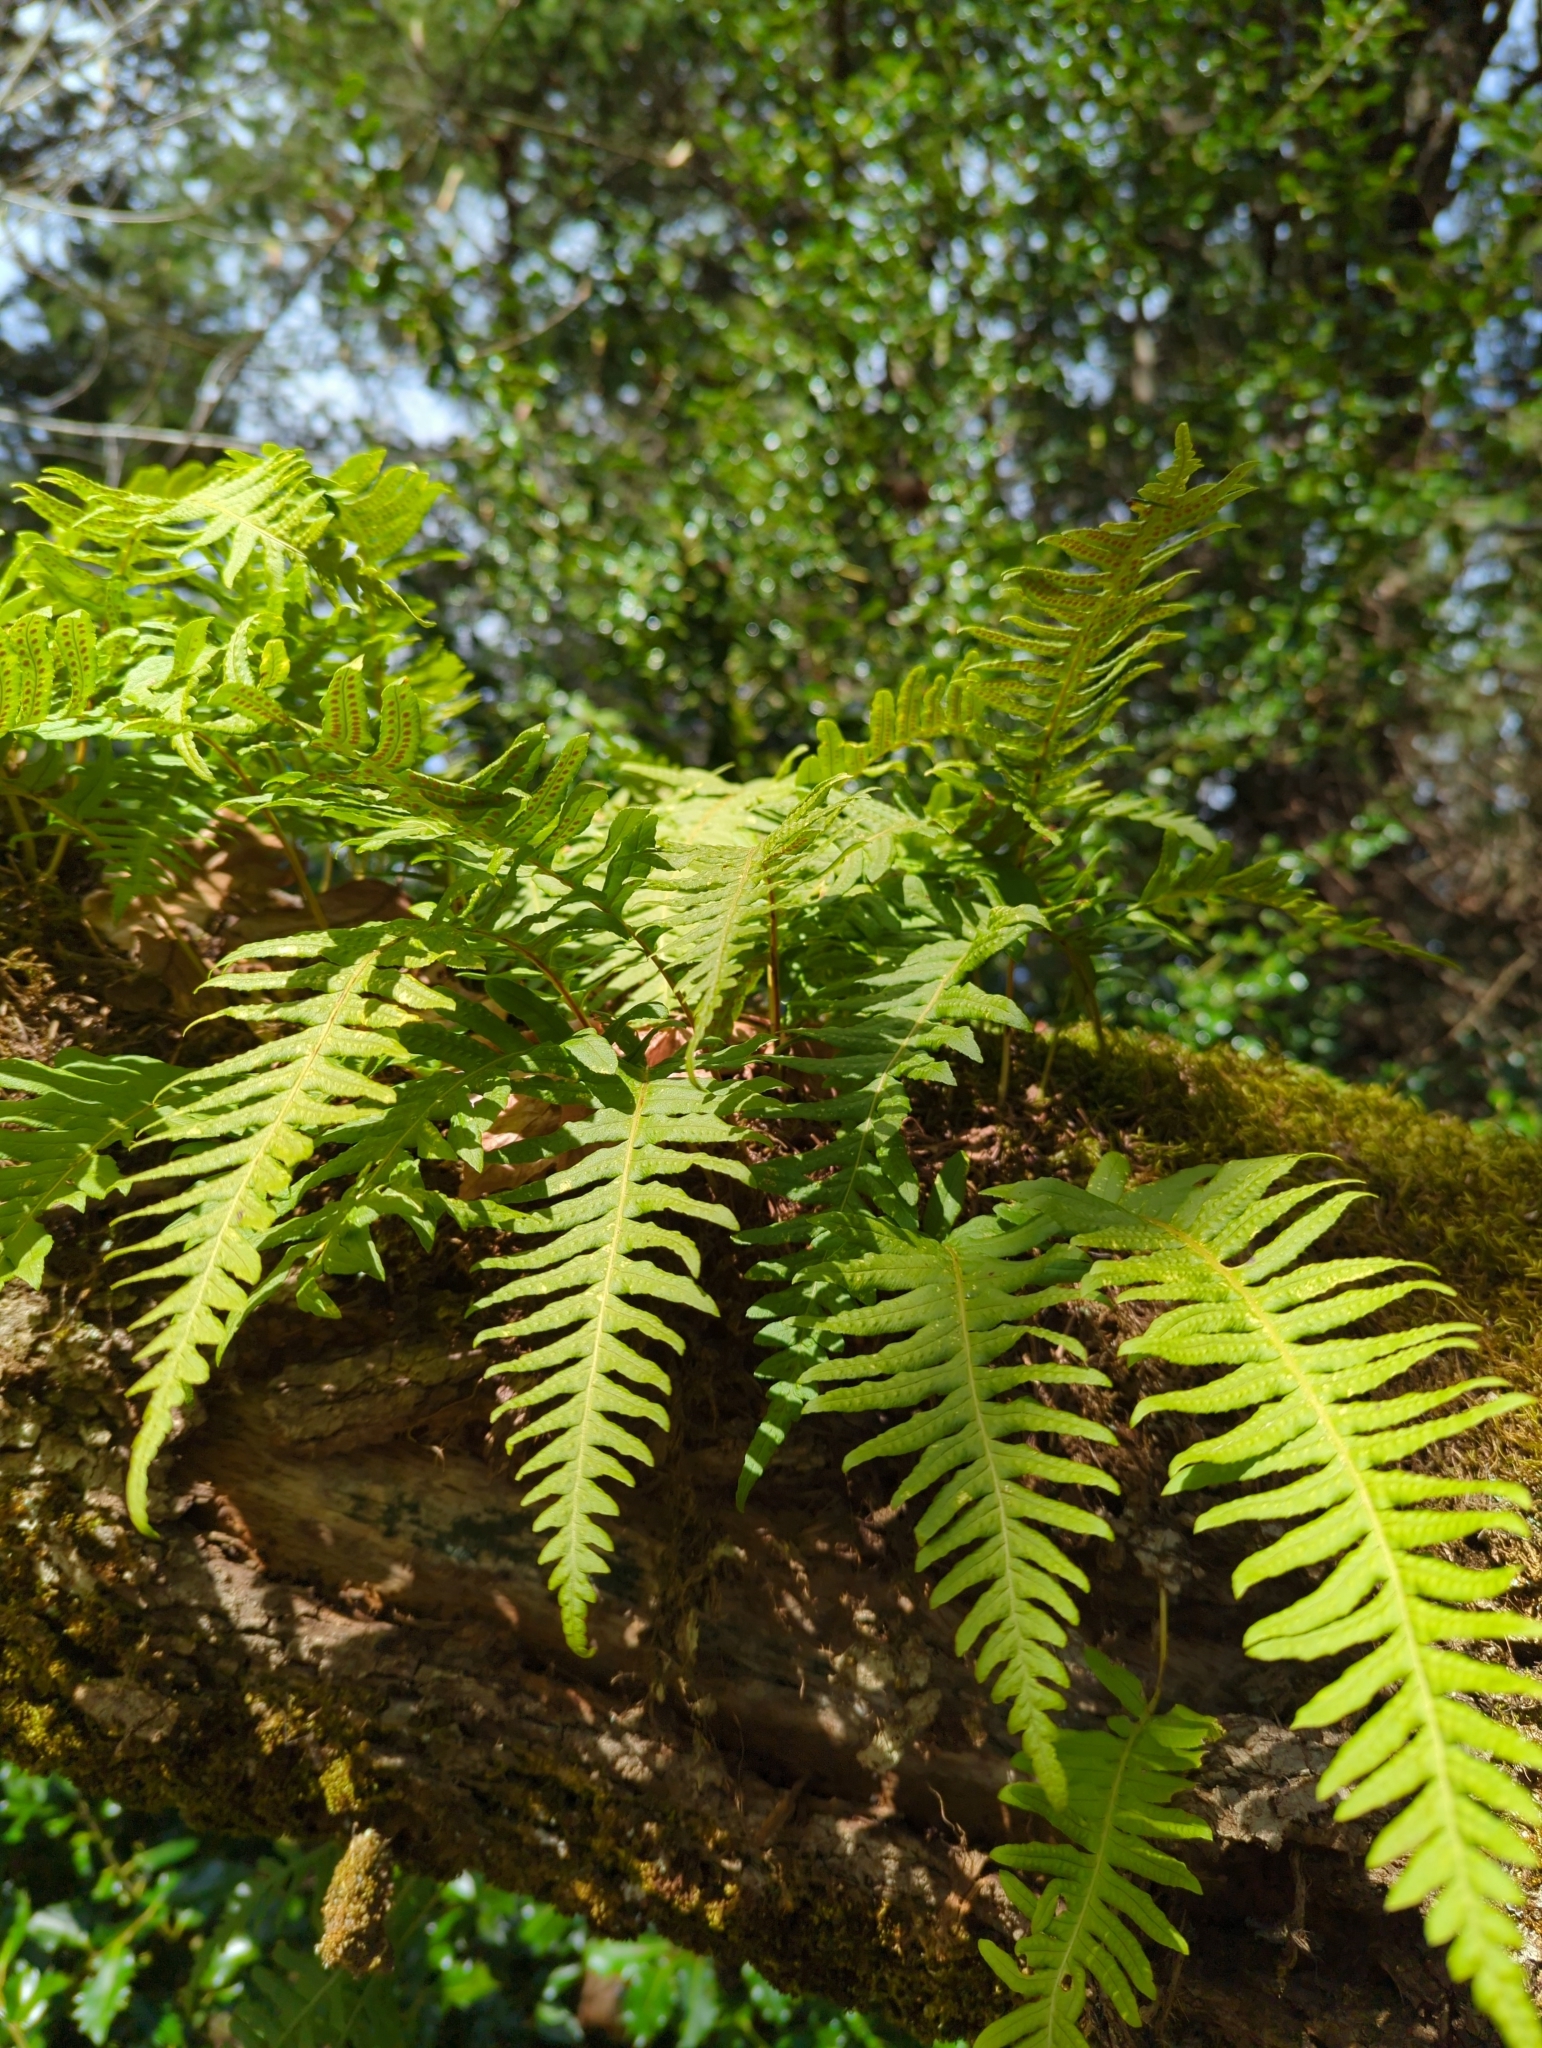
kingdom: Plantae
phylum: Tracheophyta
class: Polypodiopsida
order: Polypodiales
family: Polypodiaceae
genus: Polypodium
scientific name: Polypodium glycyrrhiza
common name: Licorice fern
